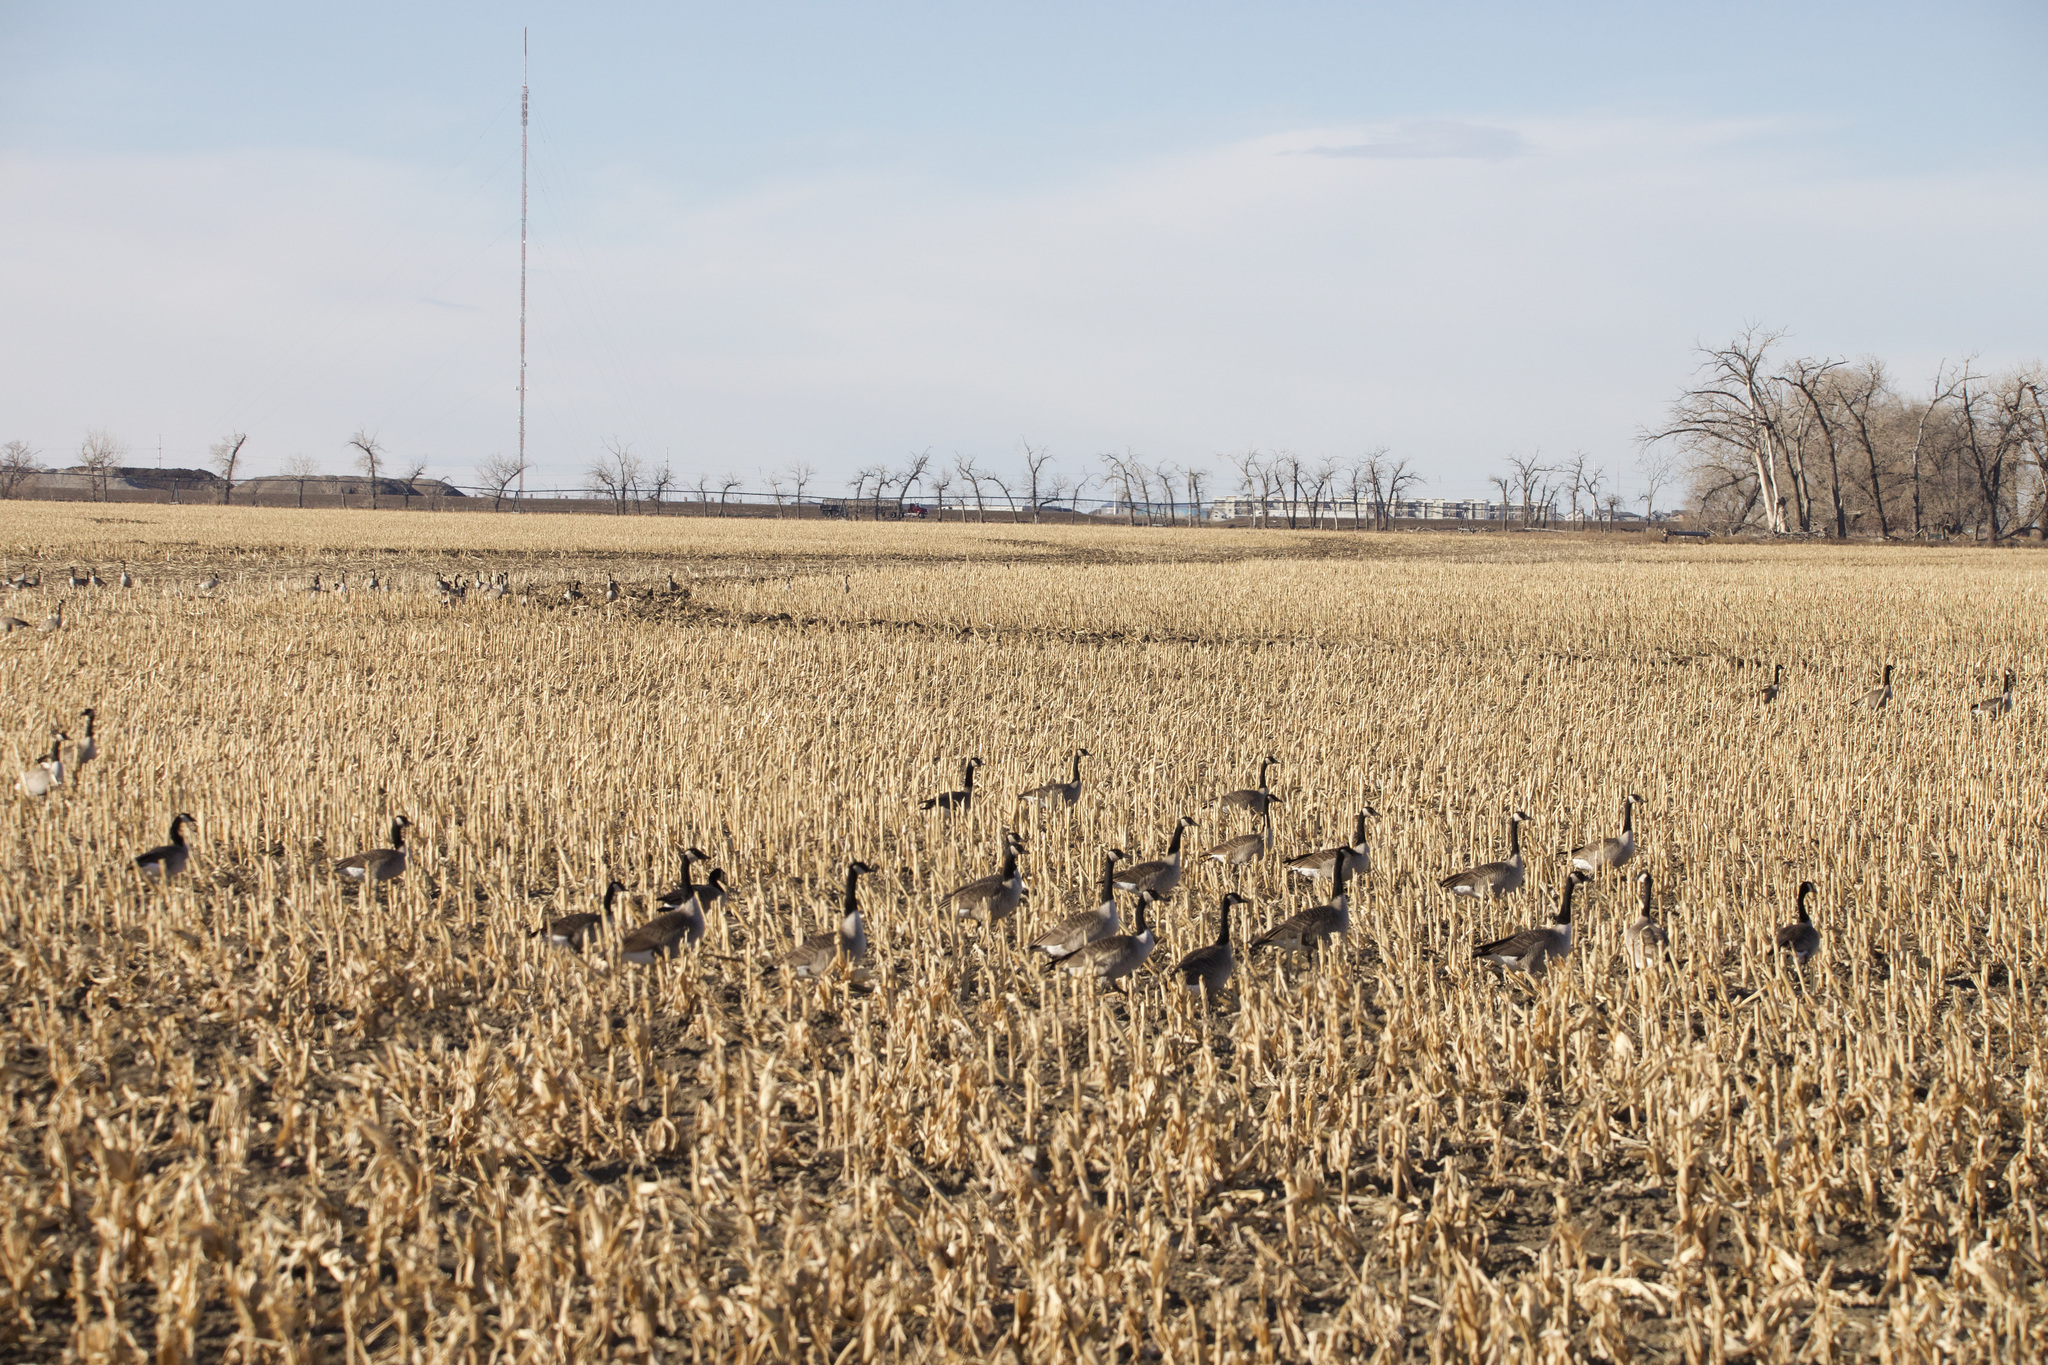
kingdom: Animalia
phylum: Chordata
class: Aves
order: Anseriformes
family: Anatidae
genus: Branta
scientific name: Branta canadensis
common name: Canada goose
